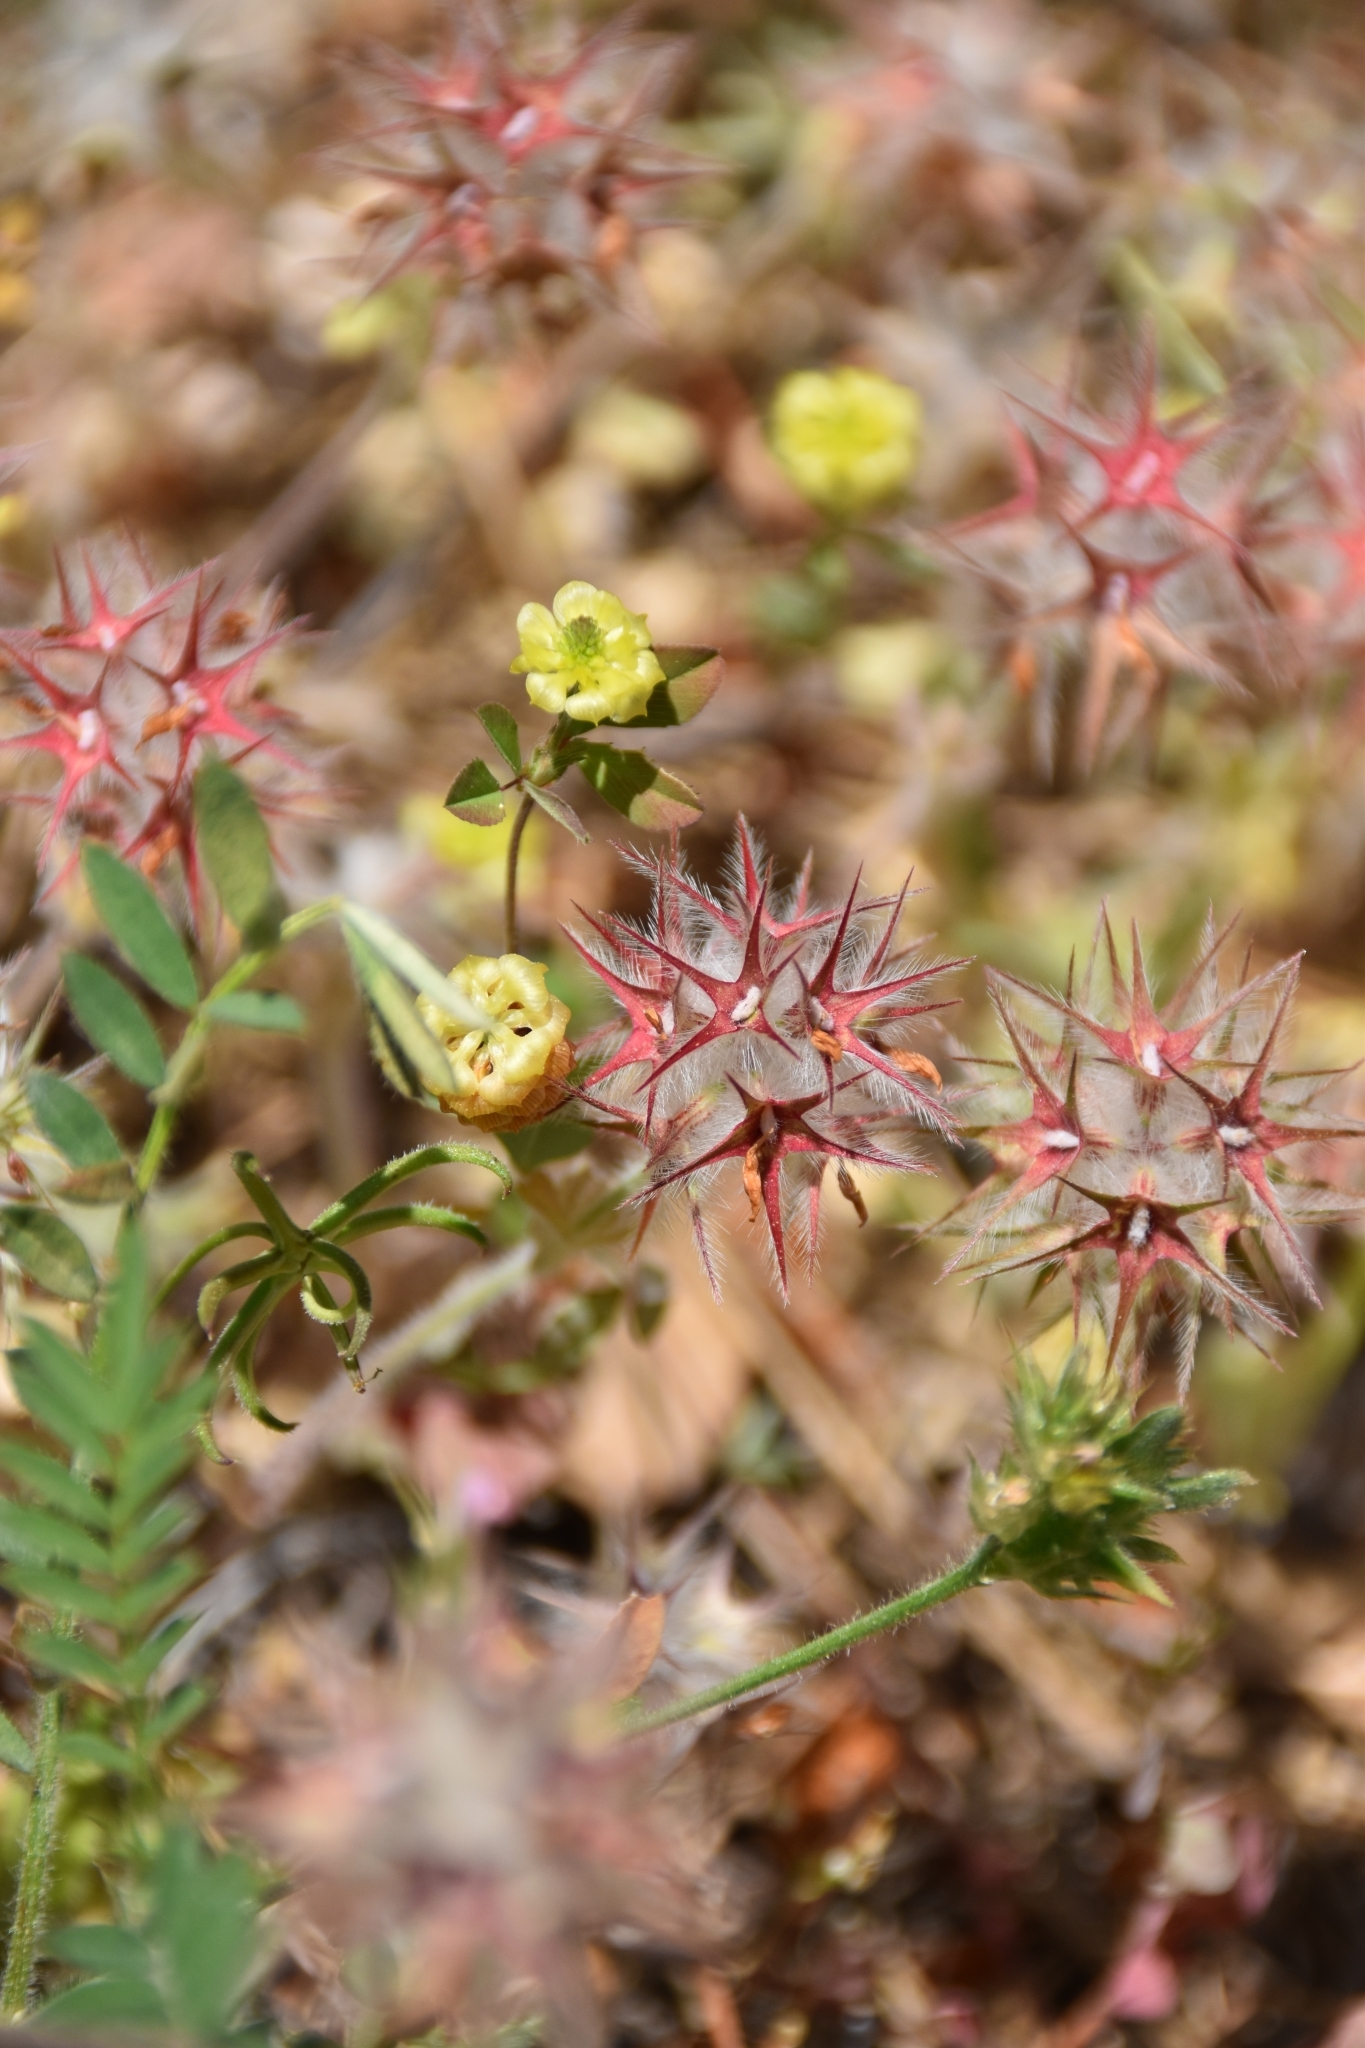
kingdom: Plantae
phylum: Tracheophyta
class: Magnoliopsida
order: Fabales
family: Fabaceae
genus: Trifolium
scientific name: Trifolium stellatum
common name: Starry clover
